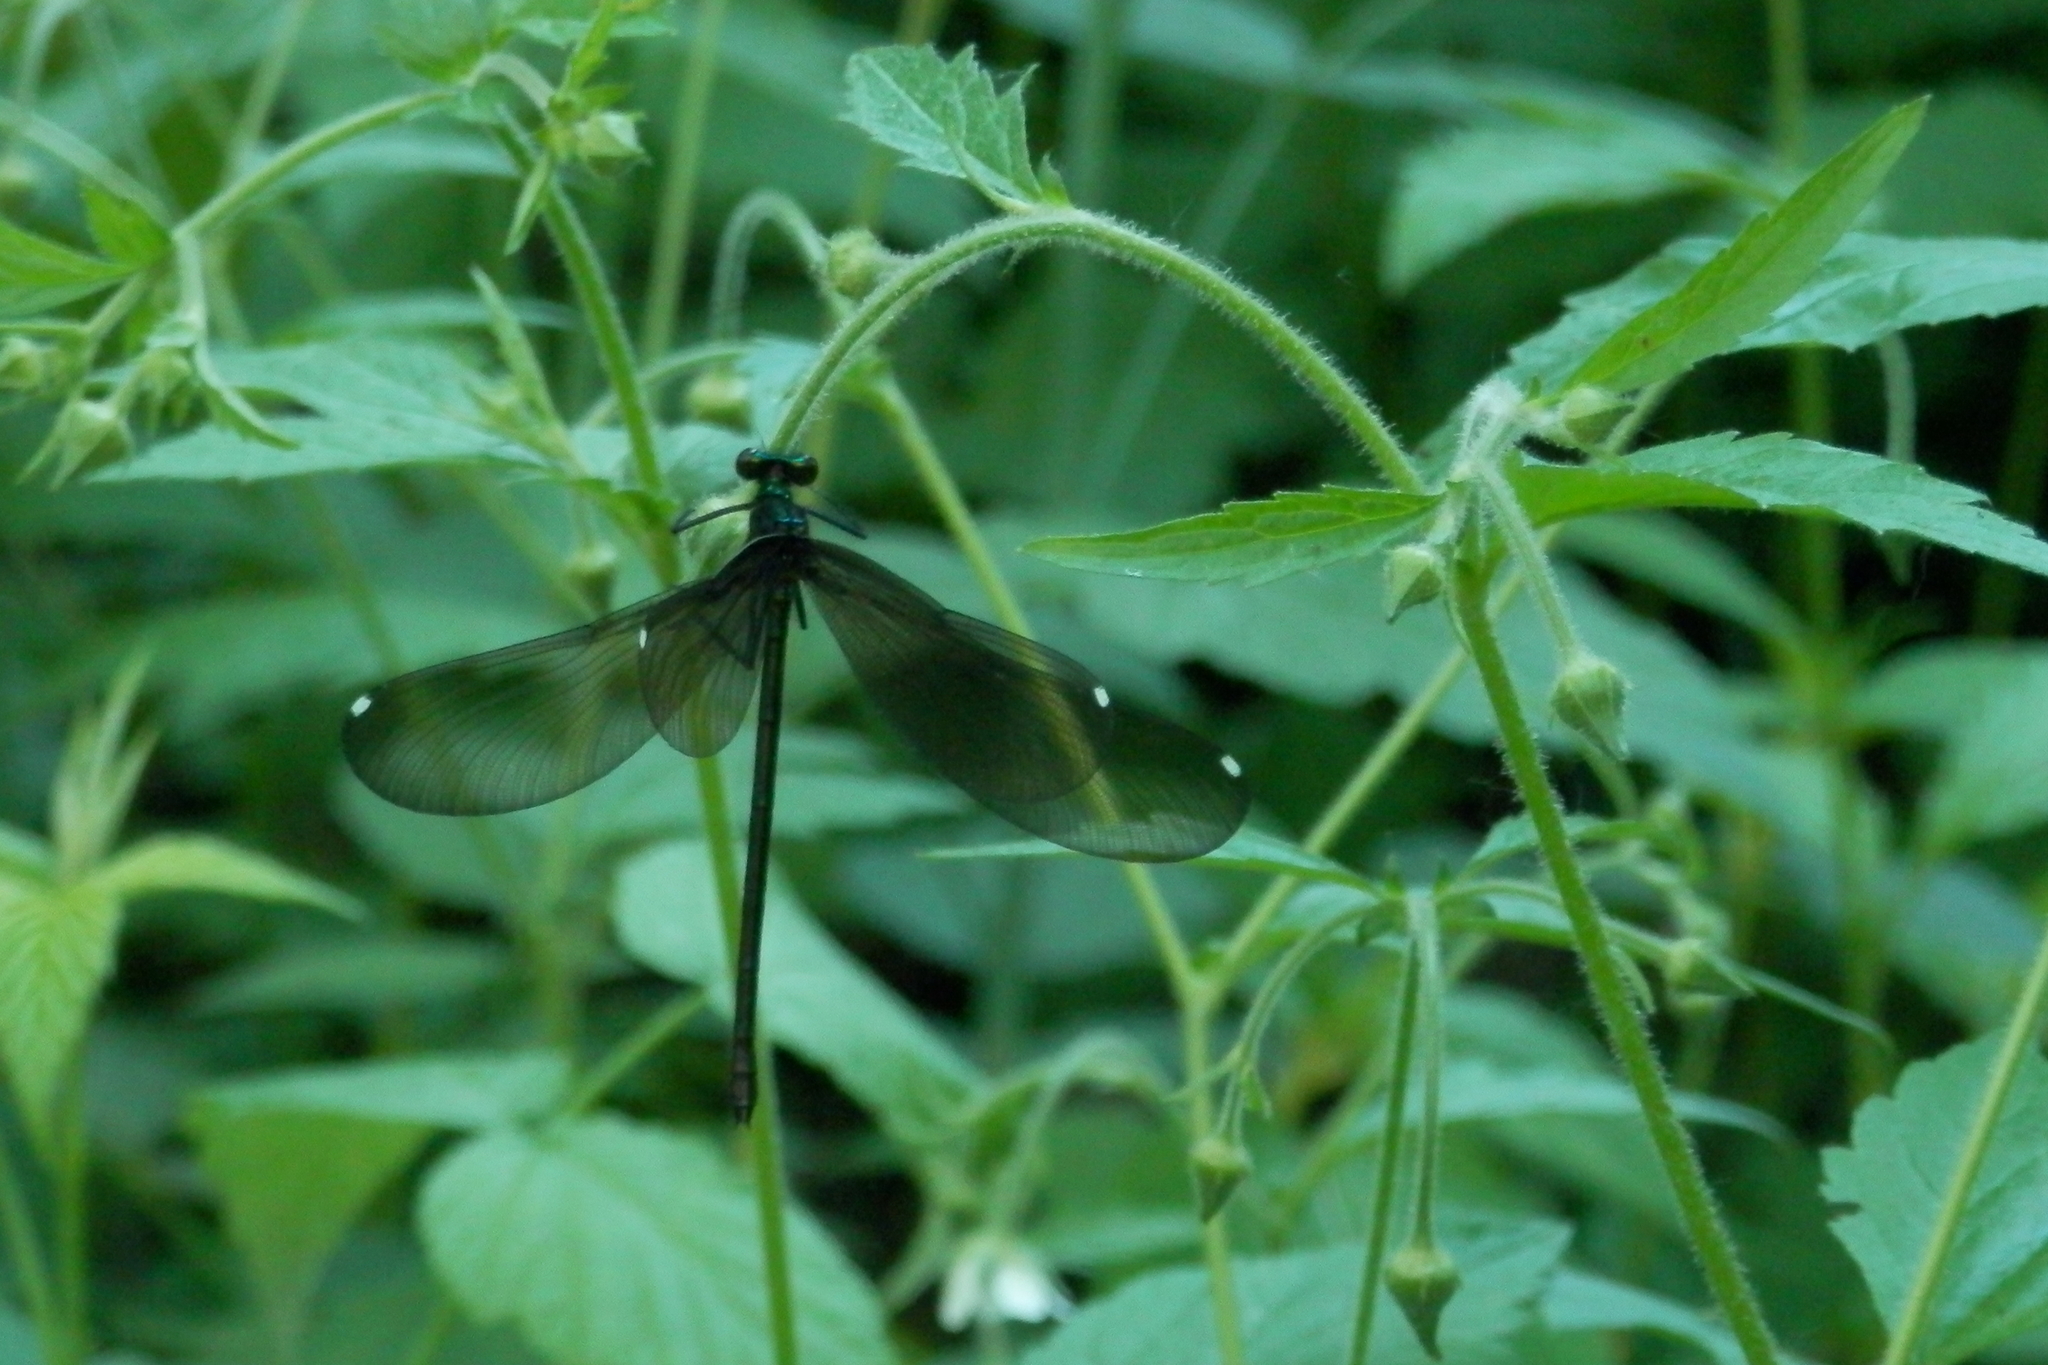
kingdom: Animalia
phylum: Arthropoda
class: Insecta
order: Odonata
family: Calopterygidae
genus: Calopteryx
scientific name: Calopteryx maculata
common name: Ebony jewelwing
